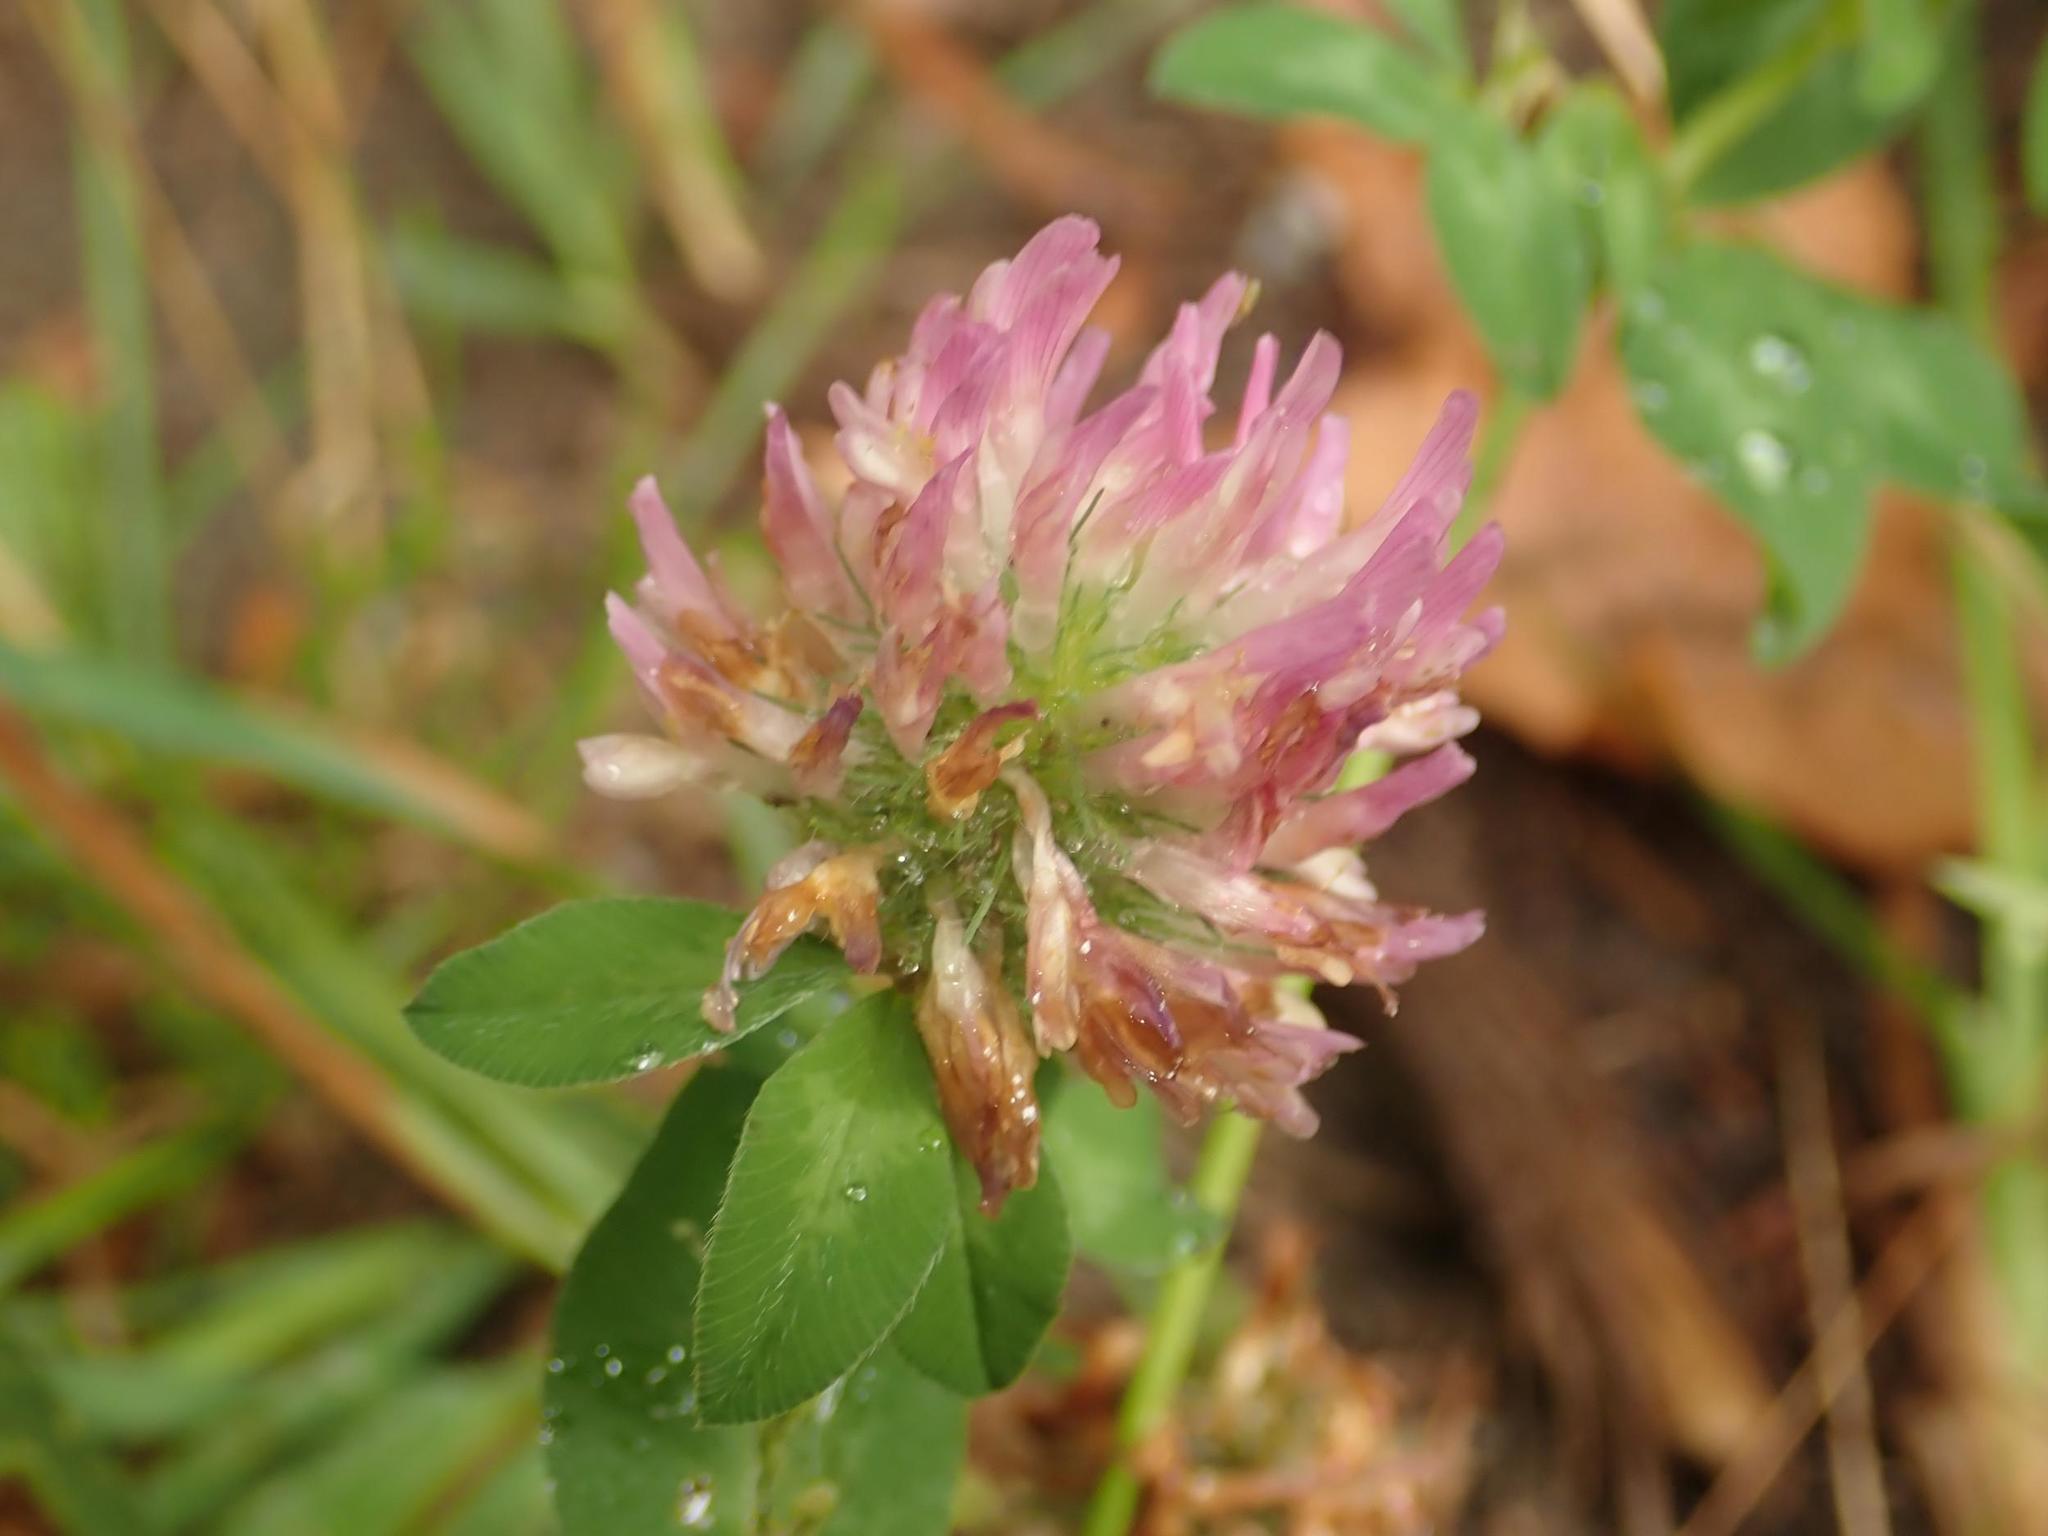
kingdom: Plantae
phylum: Tracheophyta
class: Magnoliopsida
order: Fabales
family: Fabaceae
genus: Trifolium
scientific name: Trifolium pratense
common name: Red clover
